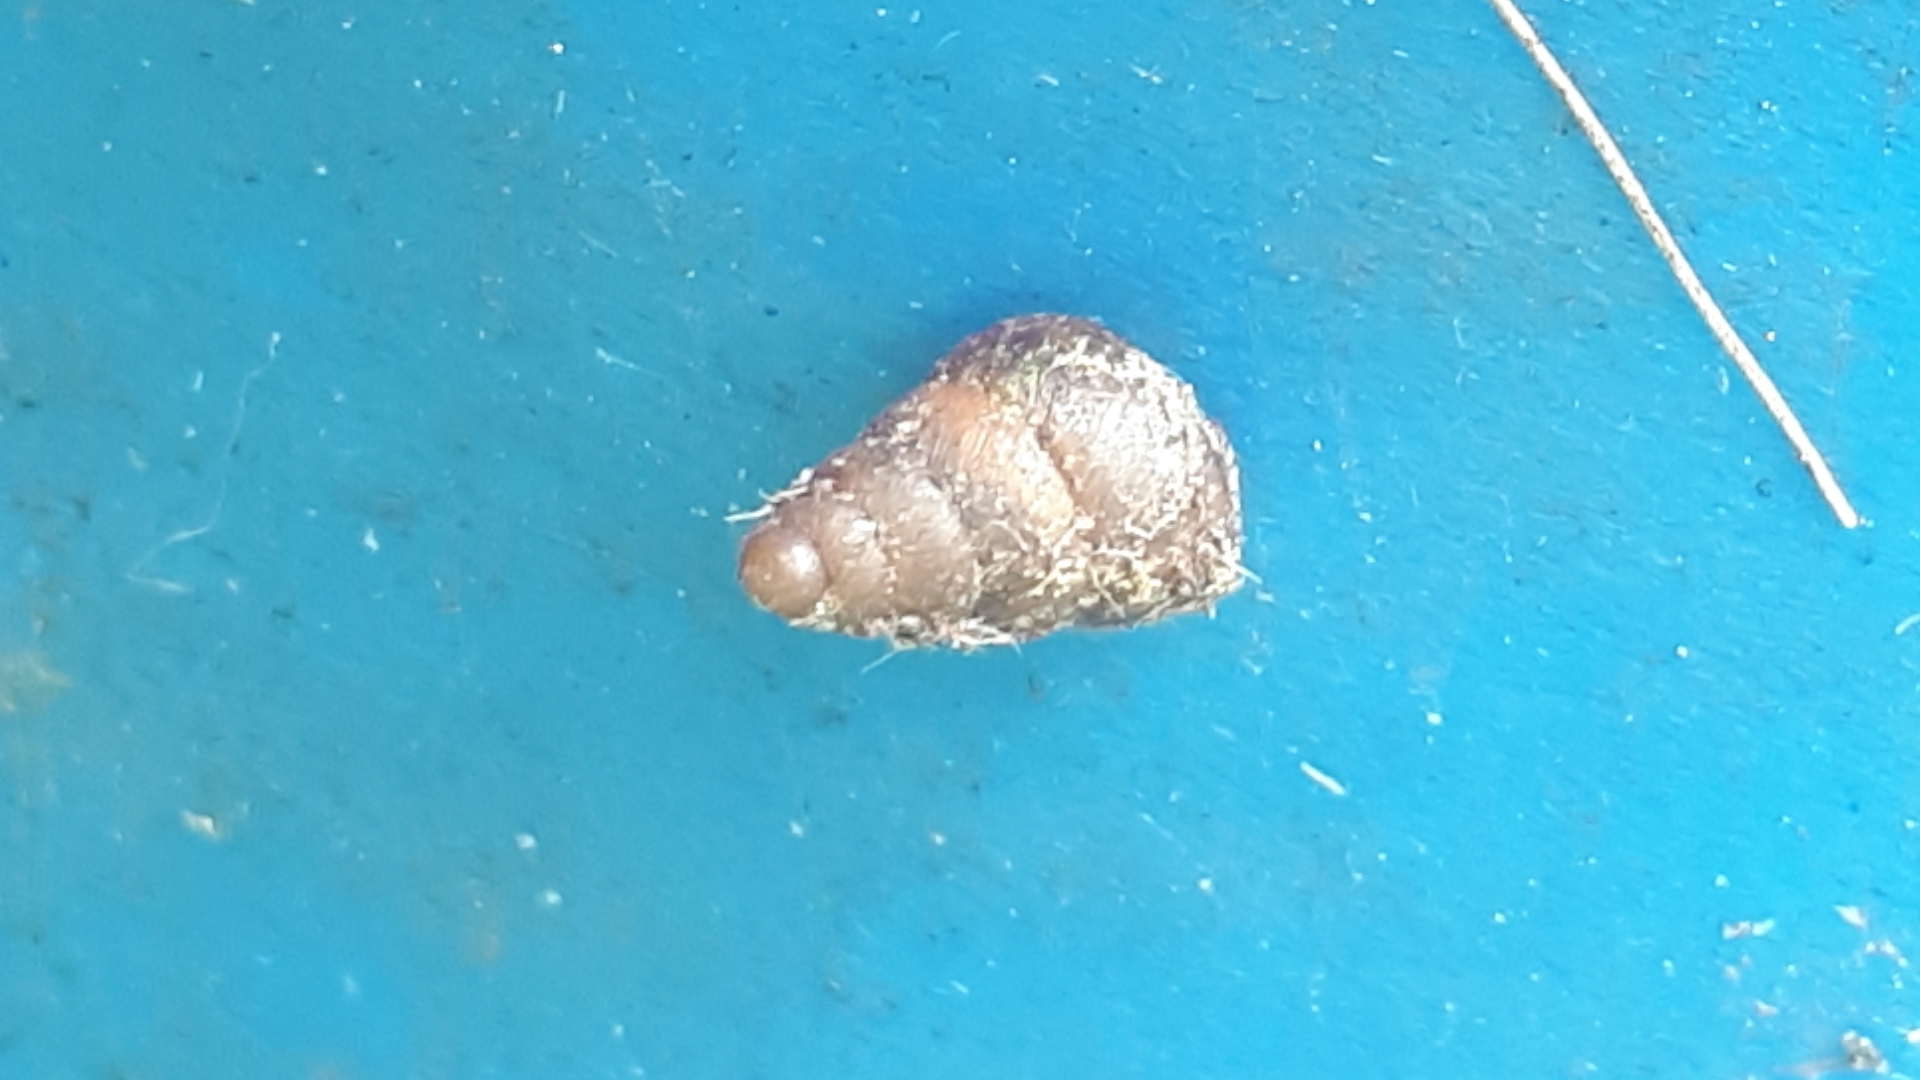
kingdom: Animalia
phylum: Mollusca
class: Gastropoda
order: Stylommatophora
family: Enidae
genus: Merdigera
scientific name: Merdigera obscura
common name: Lesser bulin
